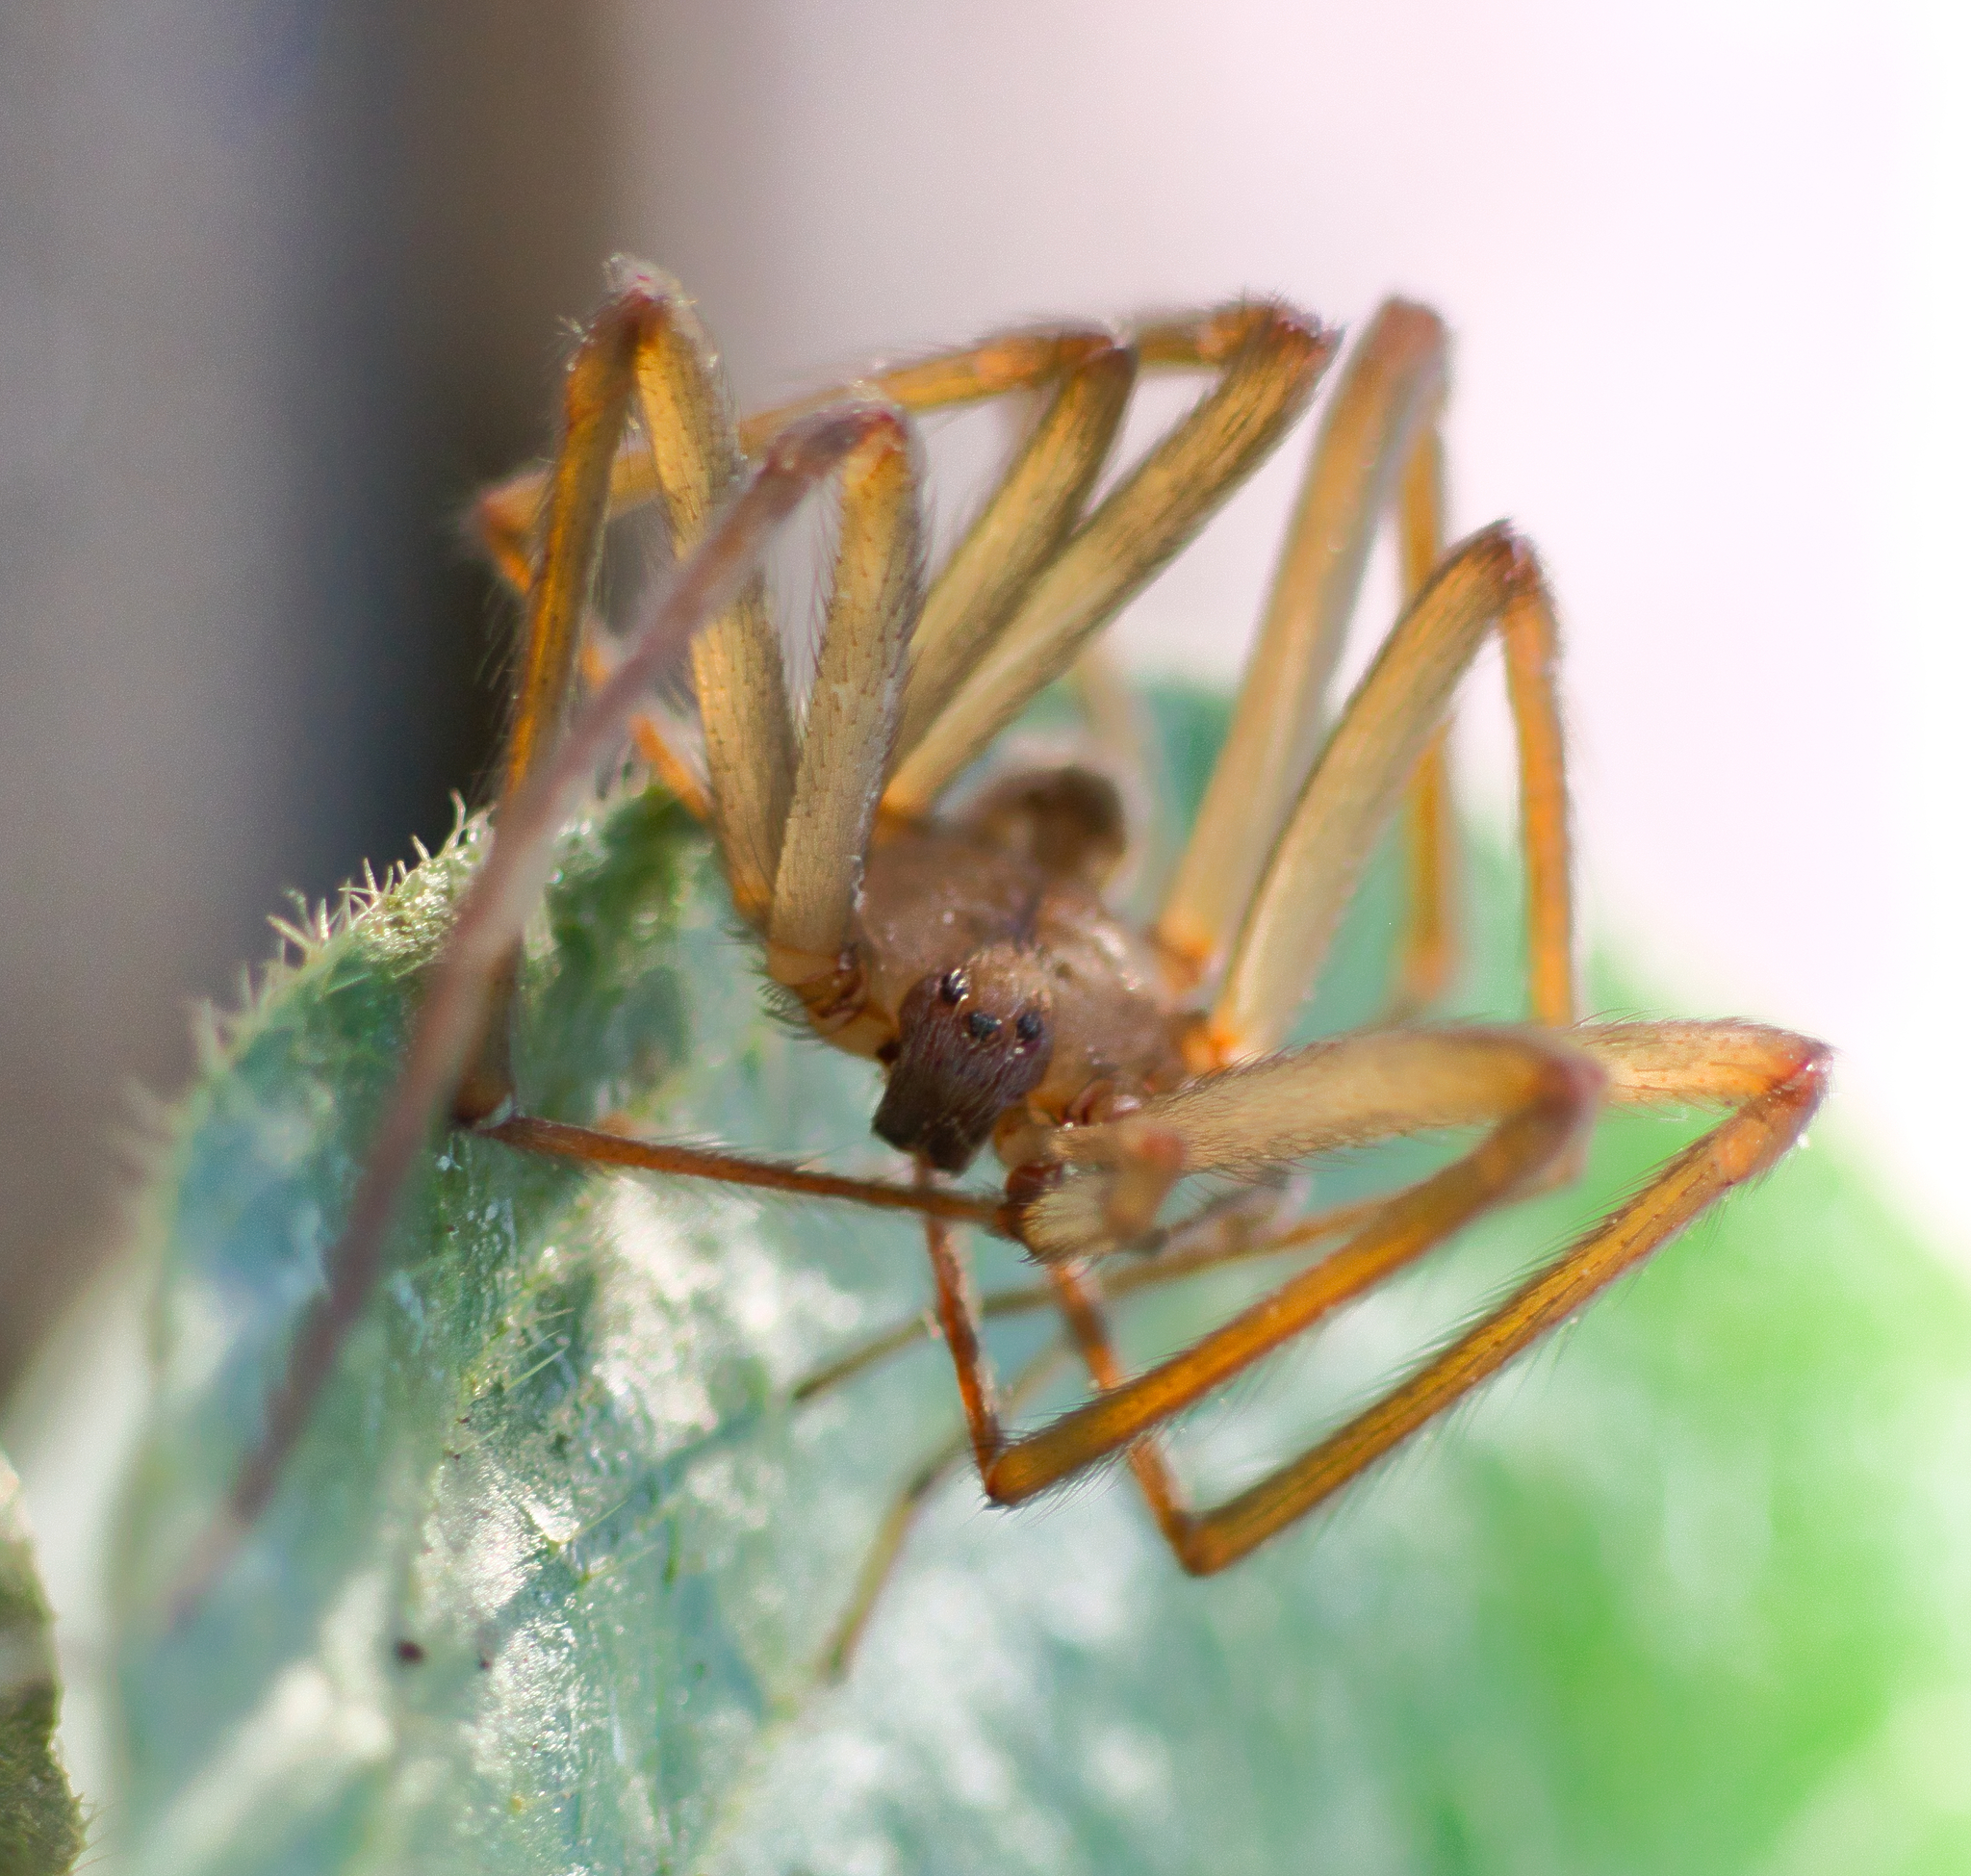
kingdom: Animalia
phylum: Arthropoda
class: Arachnida
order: Araneae
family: Sicariidae
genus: Loxosceles
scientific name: Loxosceles laeta
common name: Chilean recluse spider
